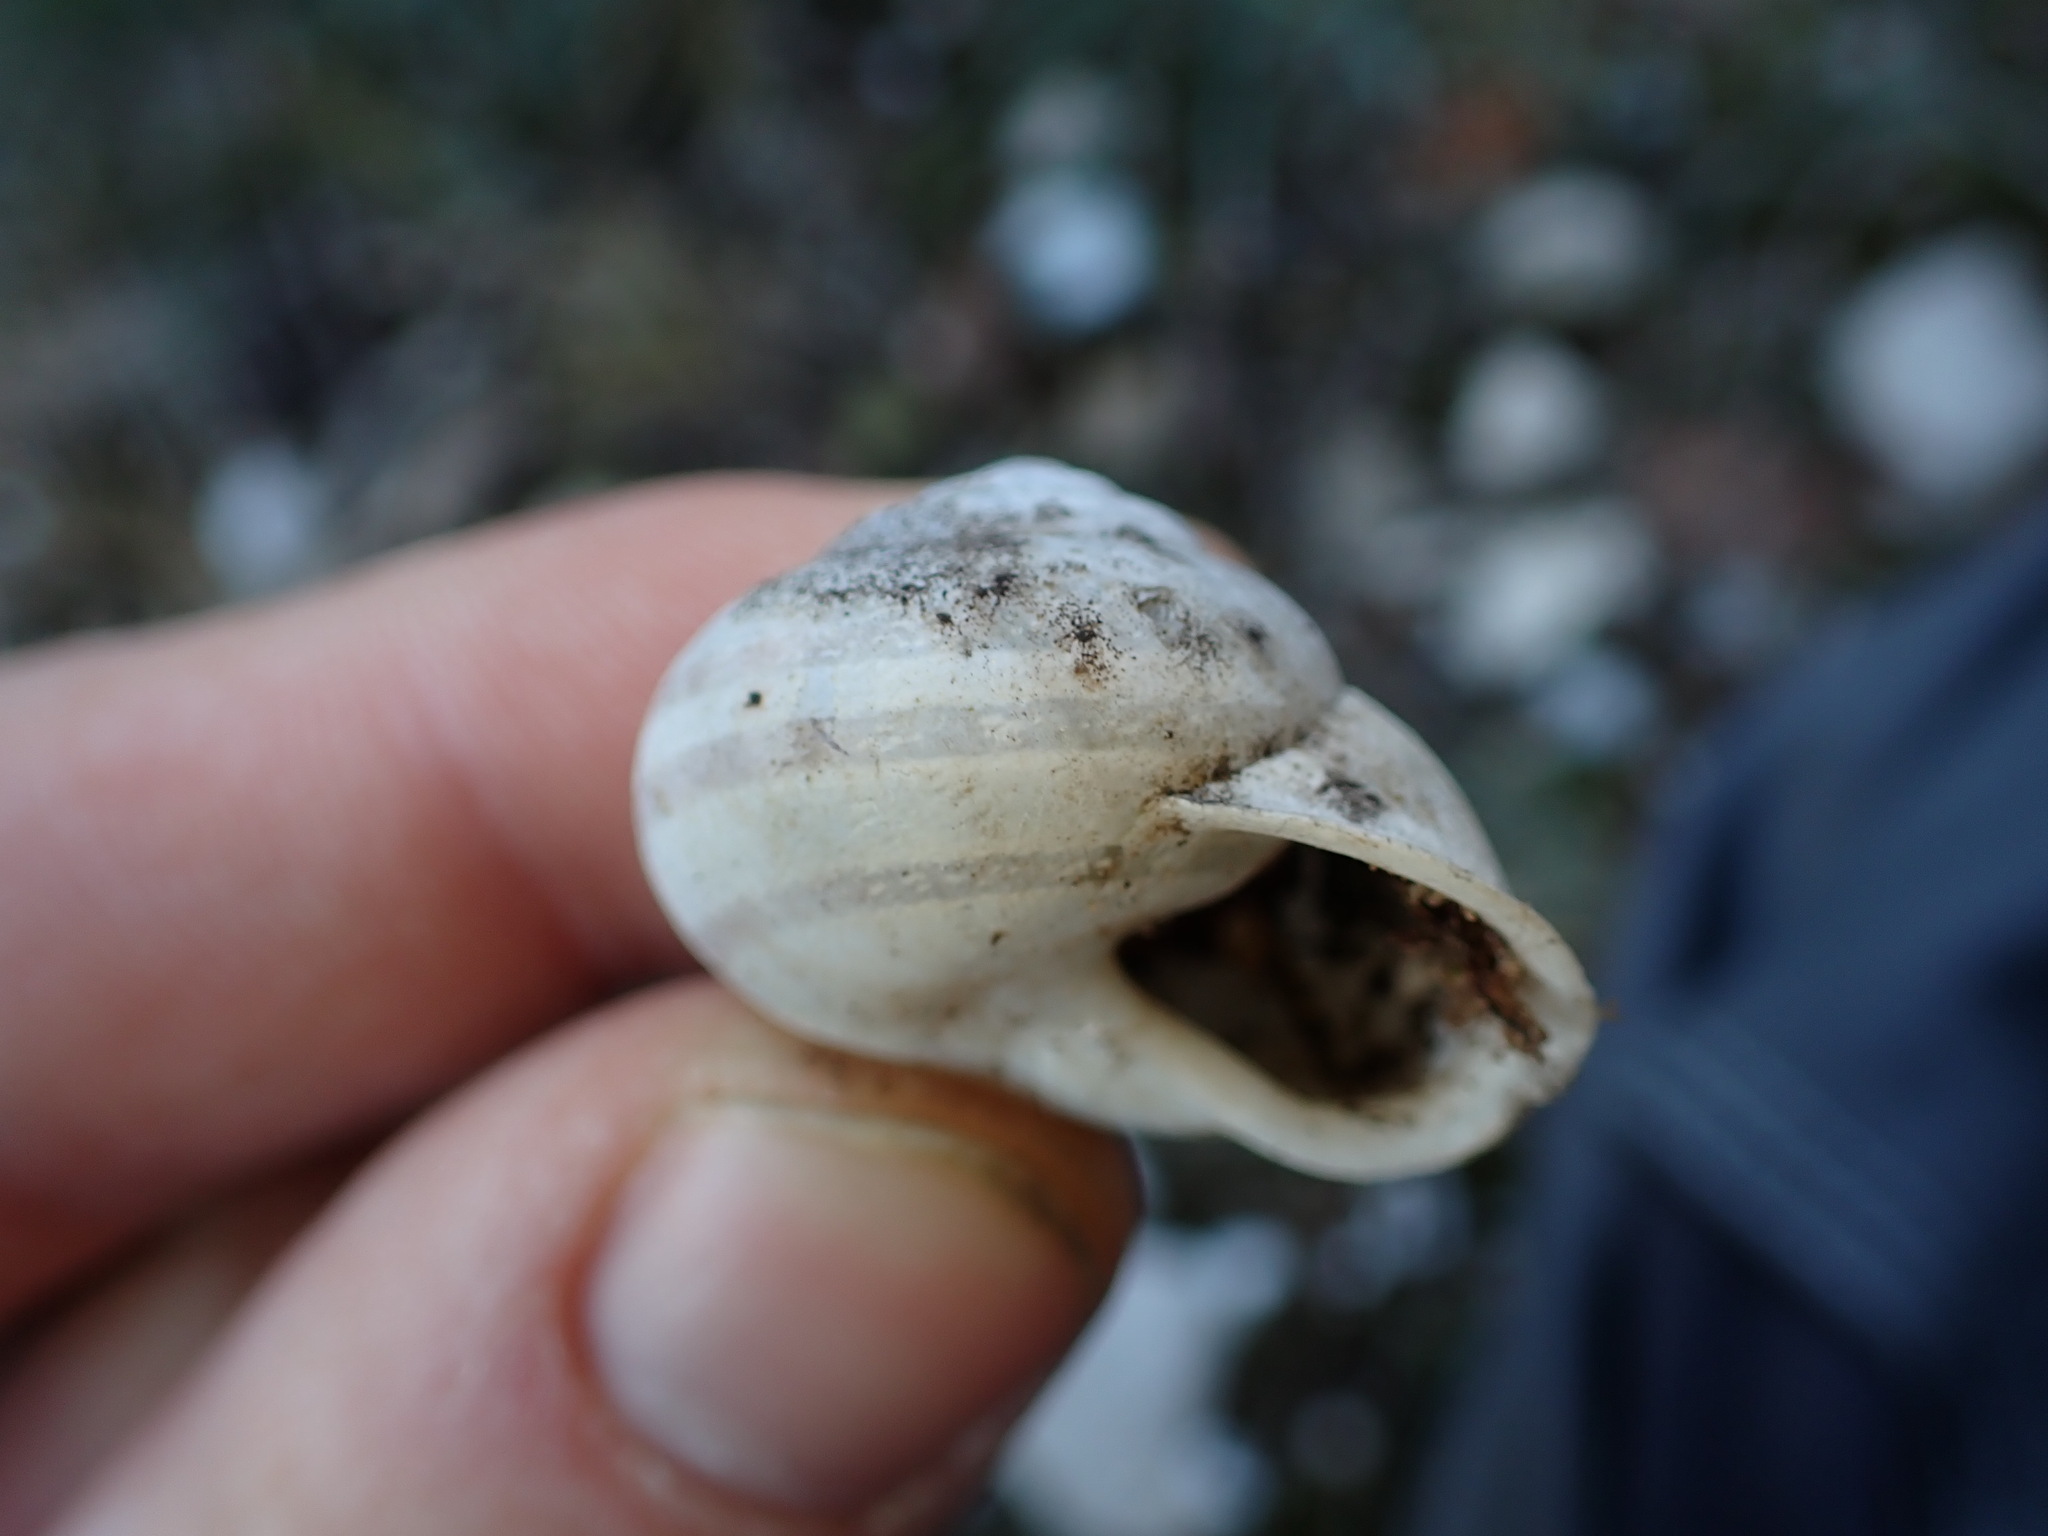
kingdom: Animalia
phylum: Mollusca
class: Gastropoda
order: Stylommatophora
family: Helicidae
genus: Eobania
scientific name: Eobania vermiculata
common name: Chocolateband snail
